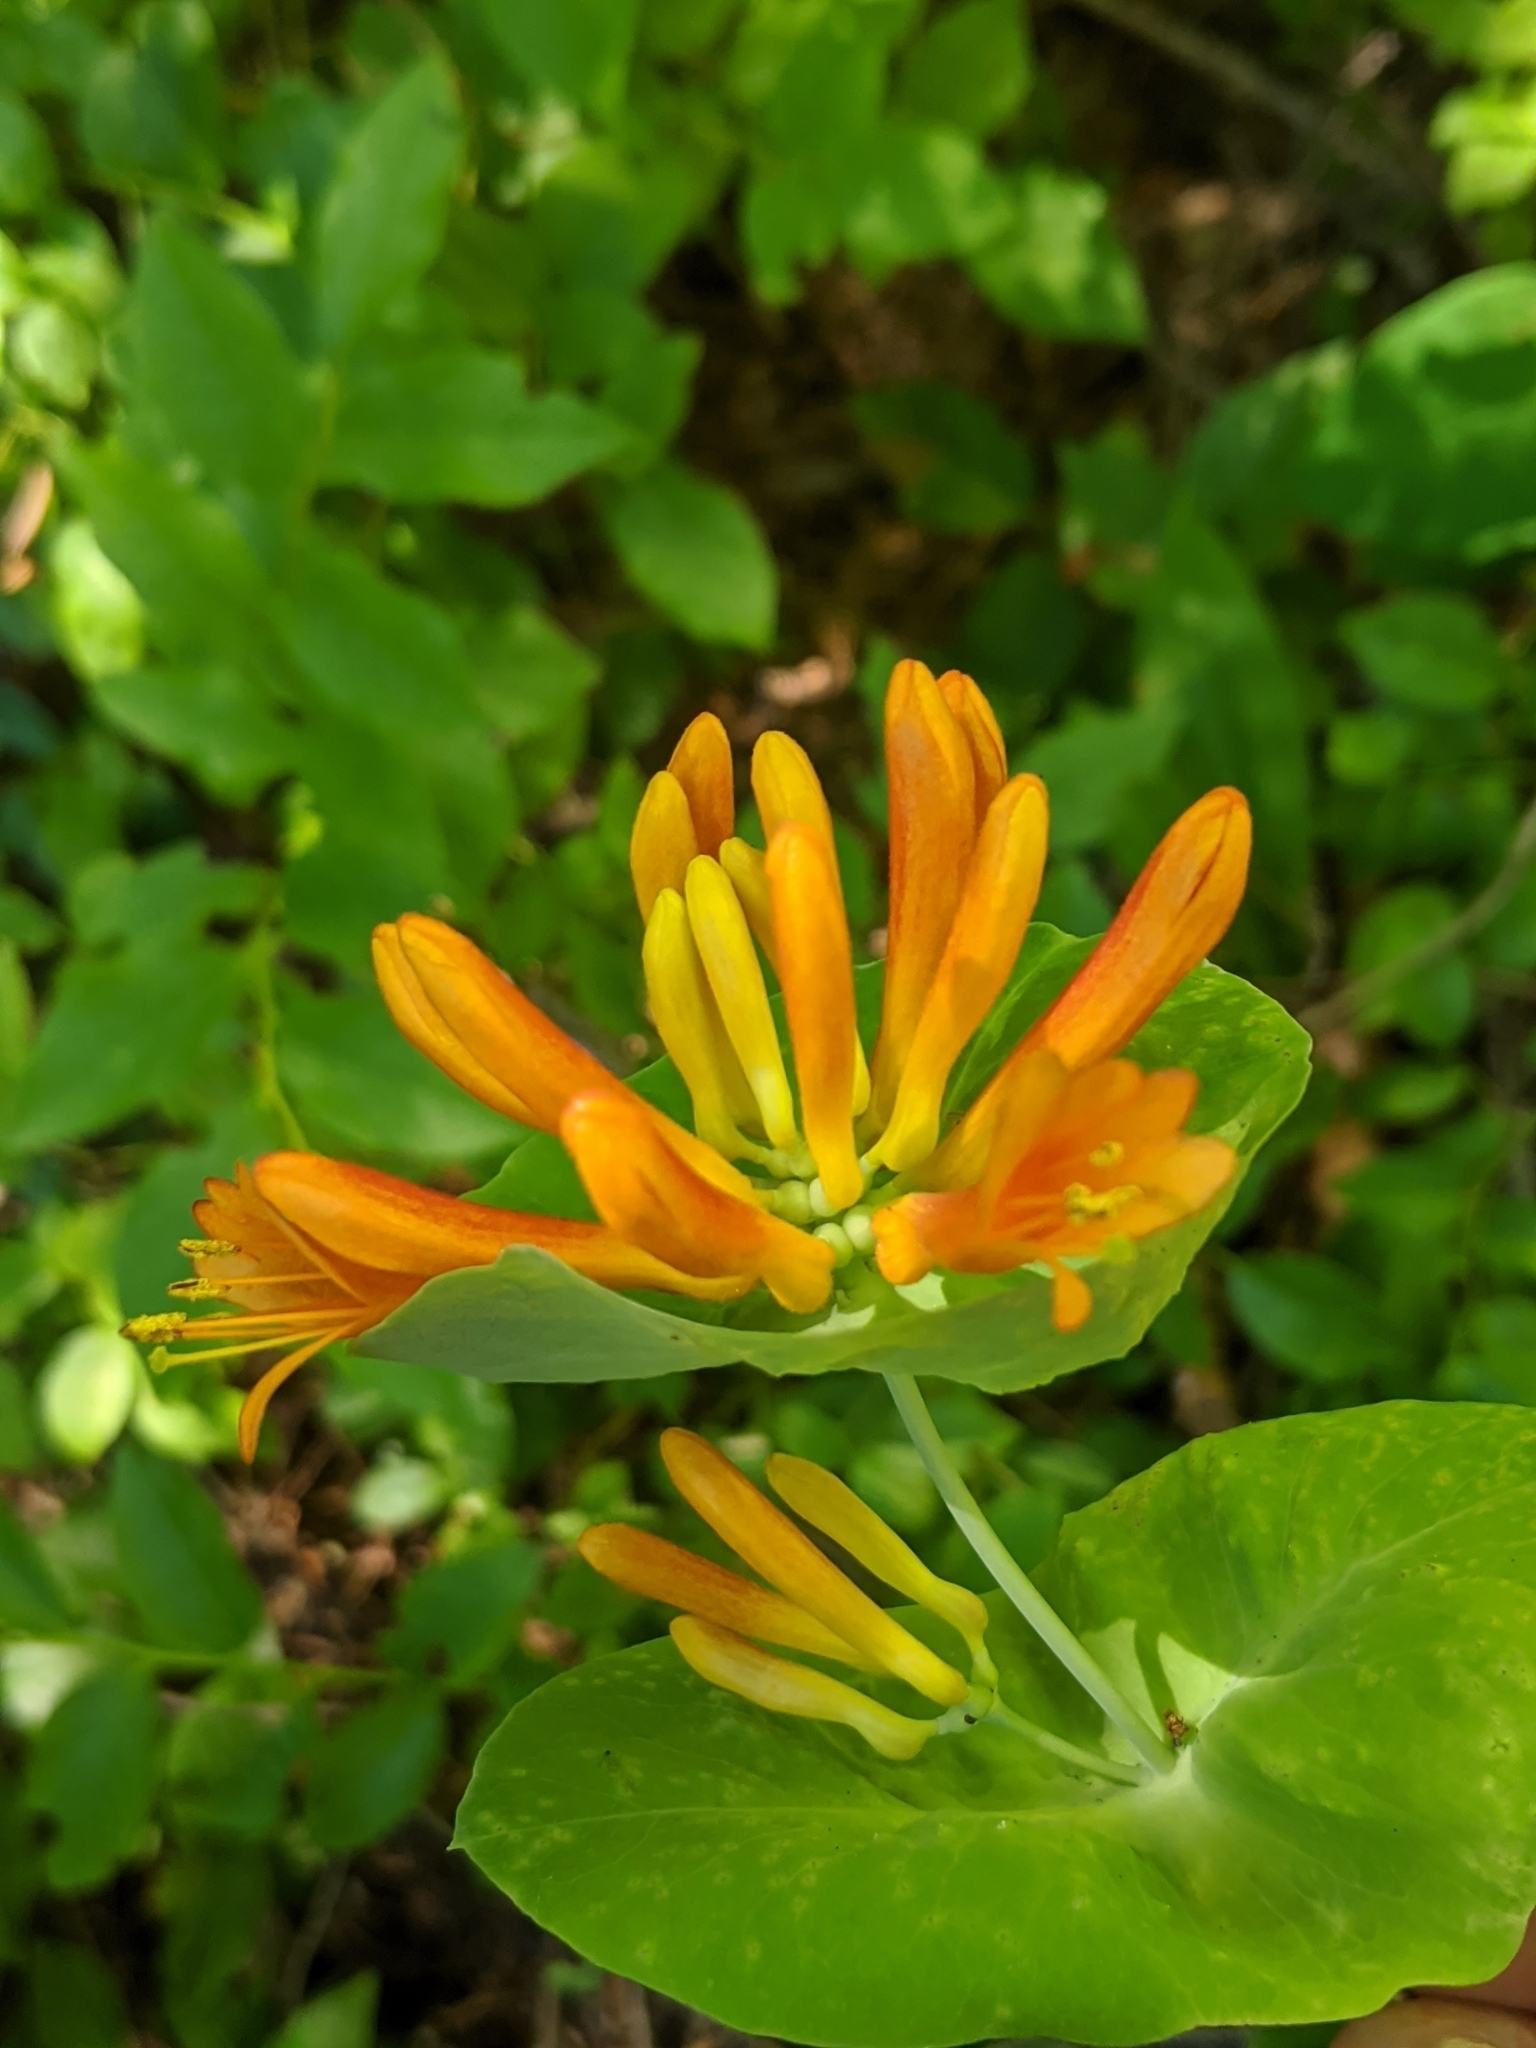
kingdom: Plantae
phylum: Tracheophyta
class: Magnoliopsida
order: Dipsacales
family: Caprifoliaceae
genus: Lonicera
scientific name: Lonicera ciliosa
